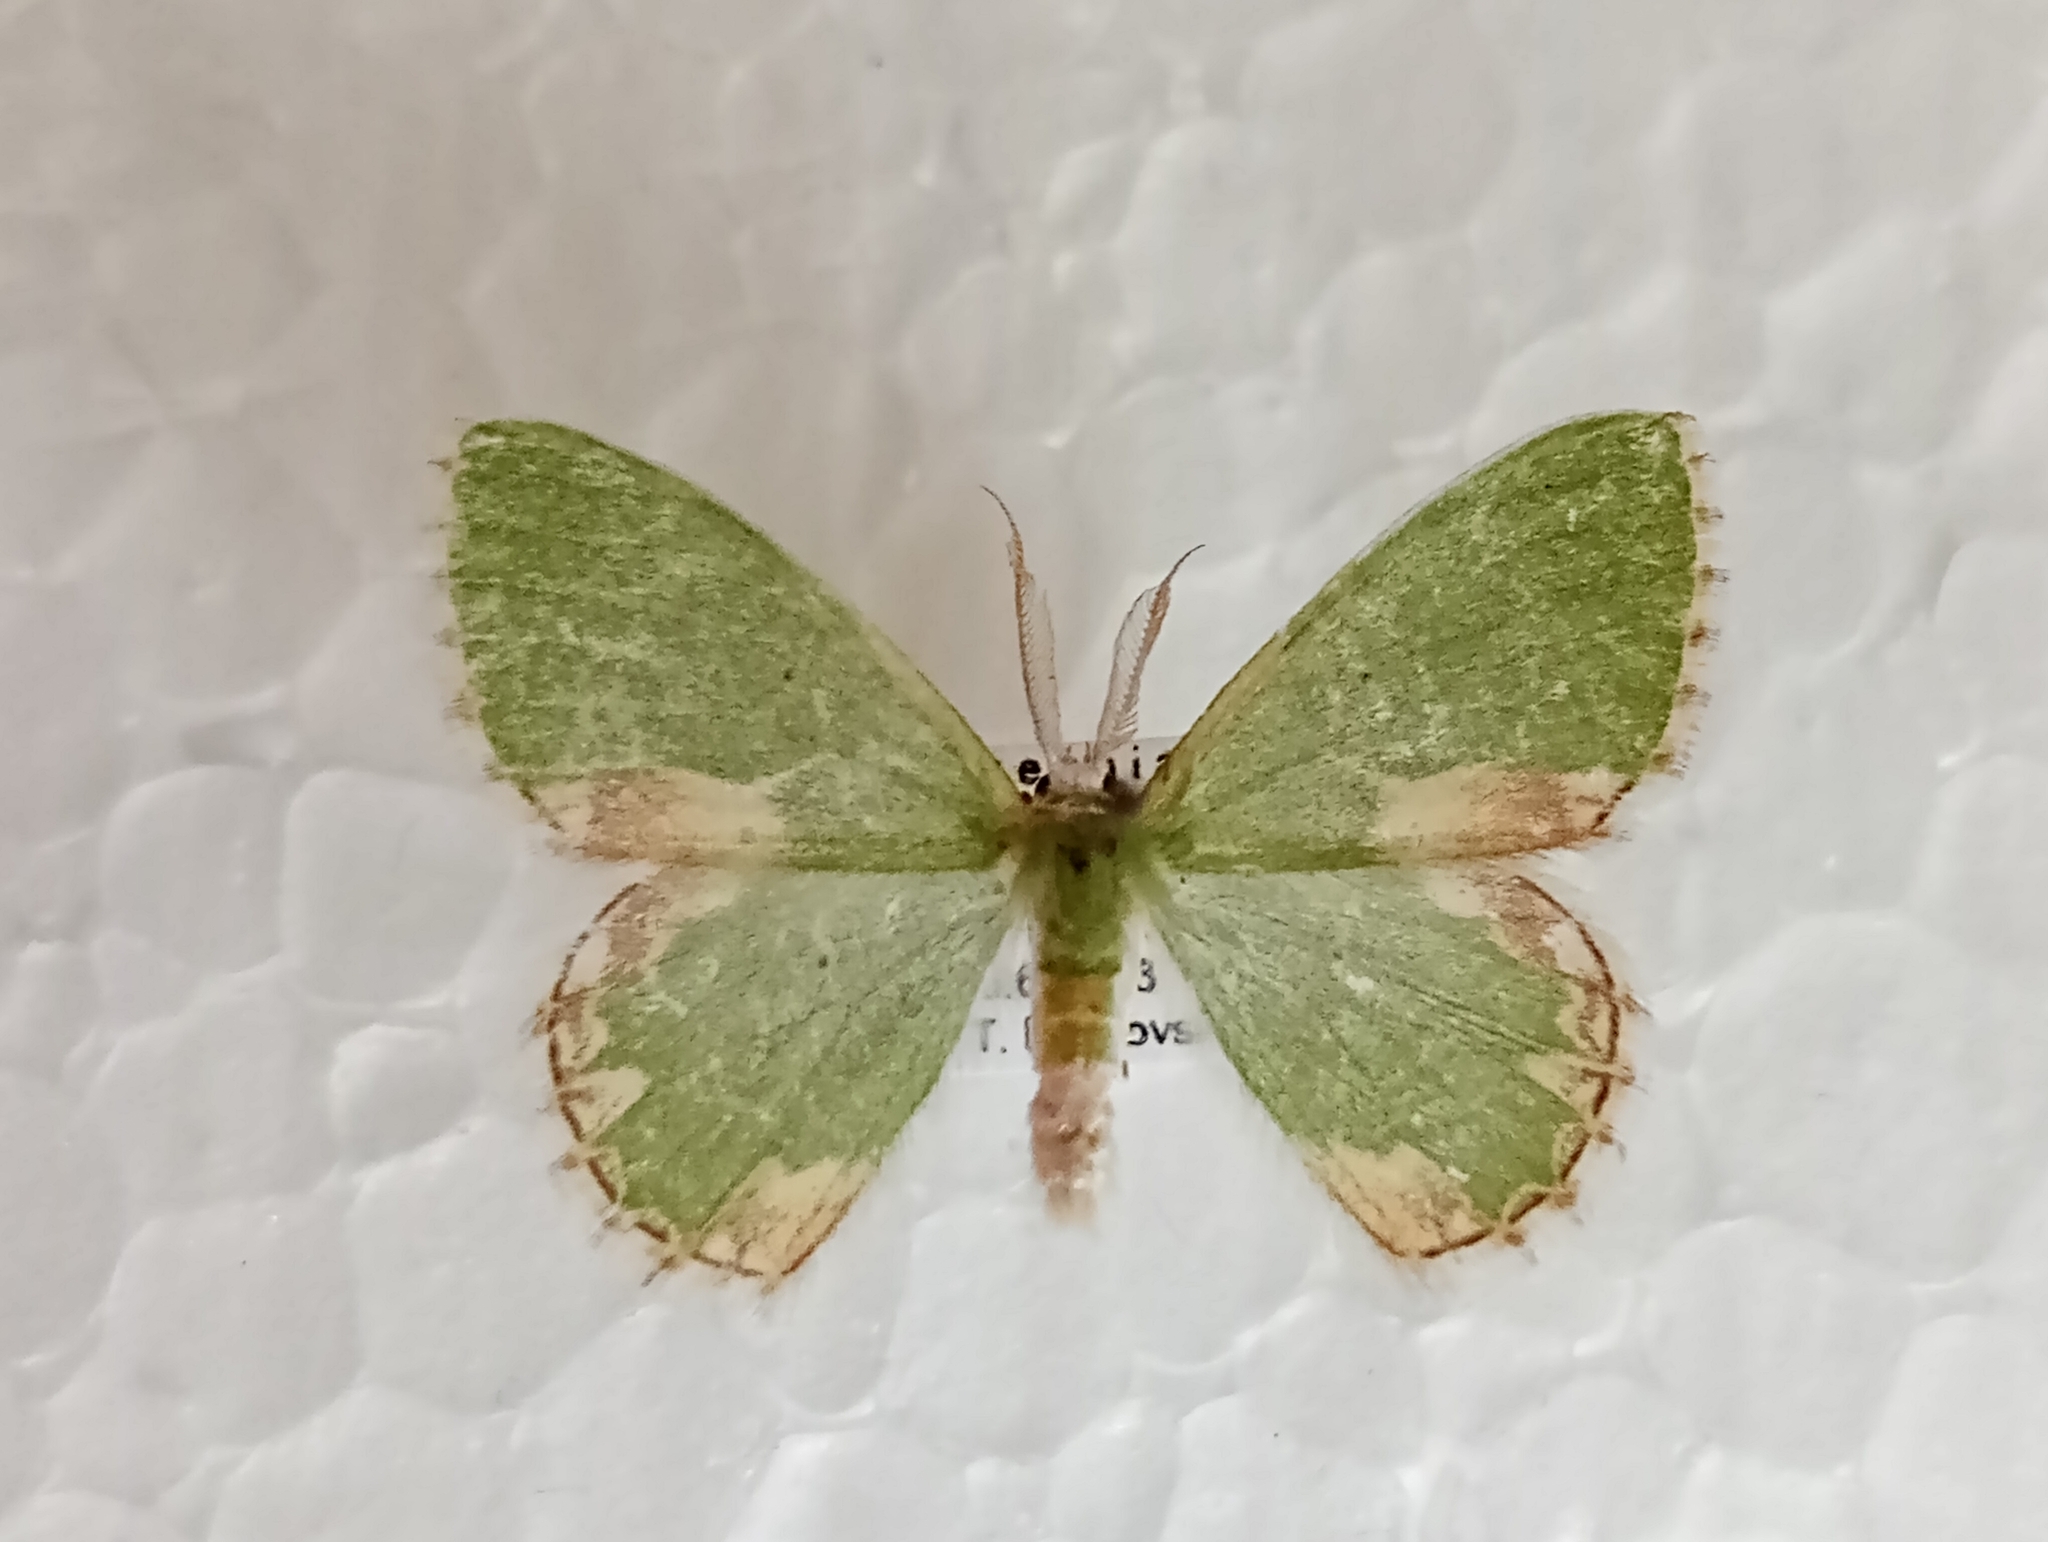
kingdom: Animalia
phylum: Arthropoda
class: Insecta
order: Lepidoptera
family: Geometridae
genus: Comibaena
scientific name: Comibaena bajularia
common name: Blotched emerald
